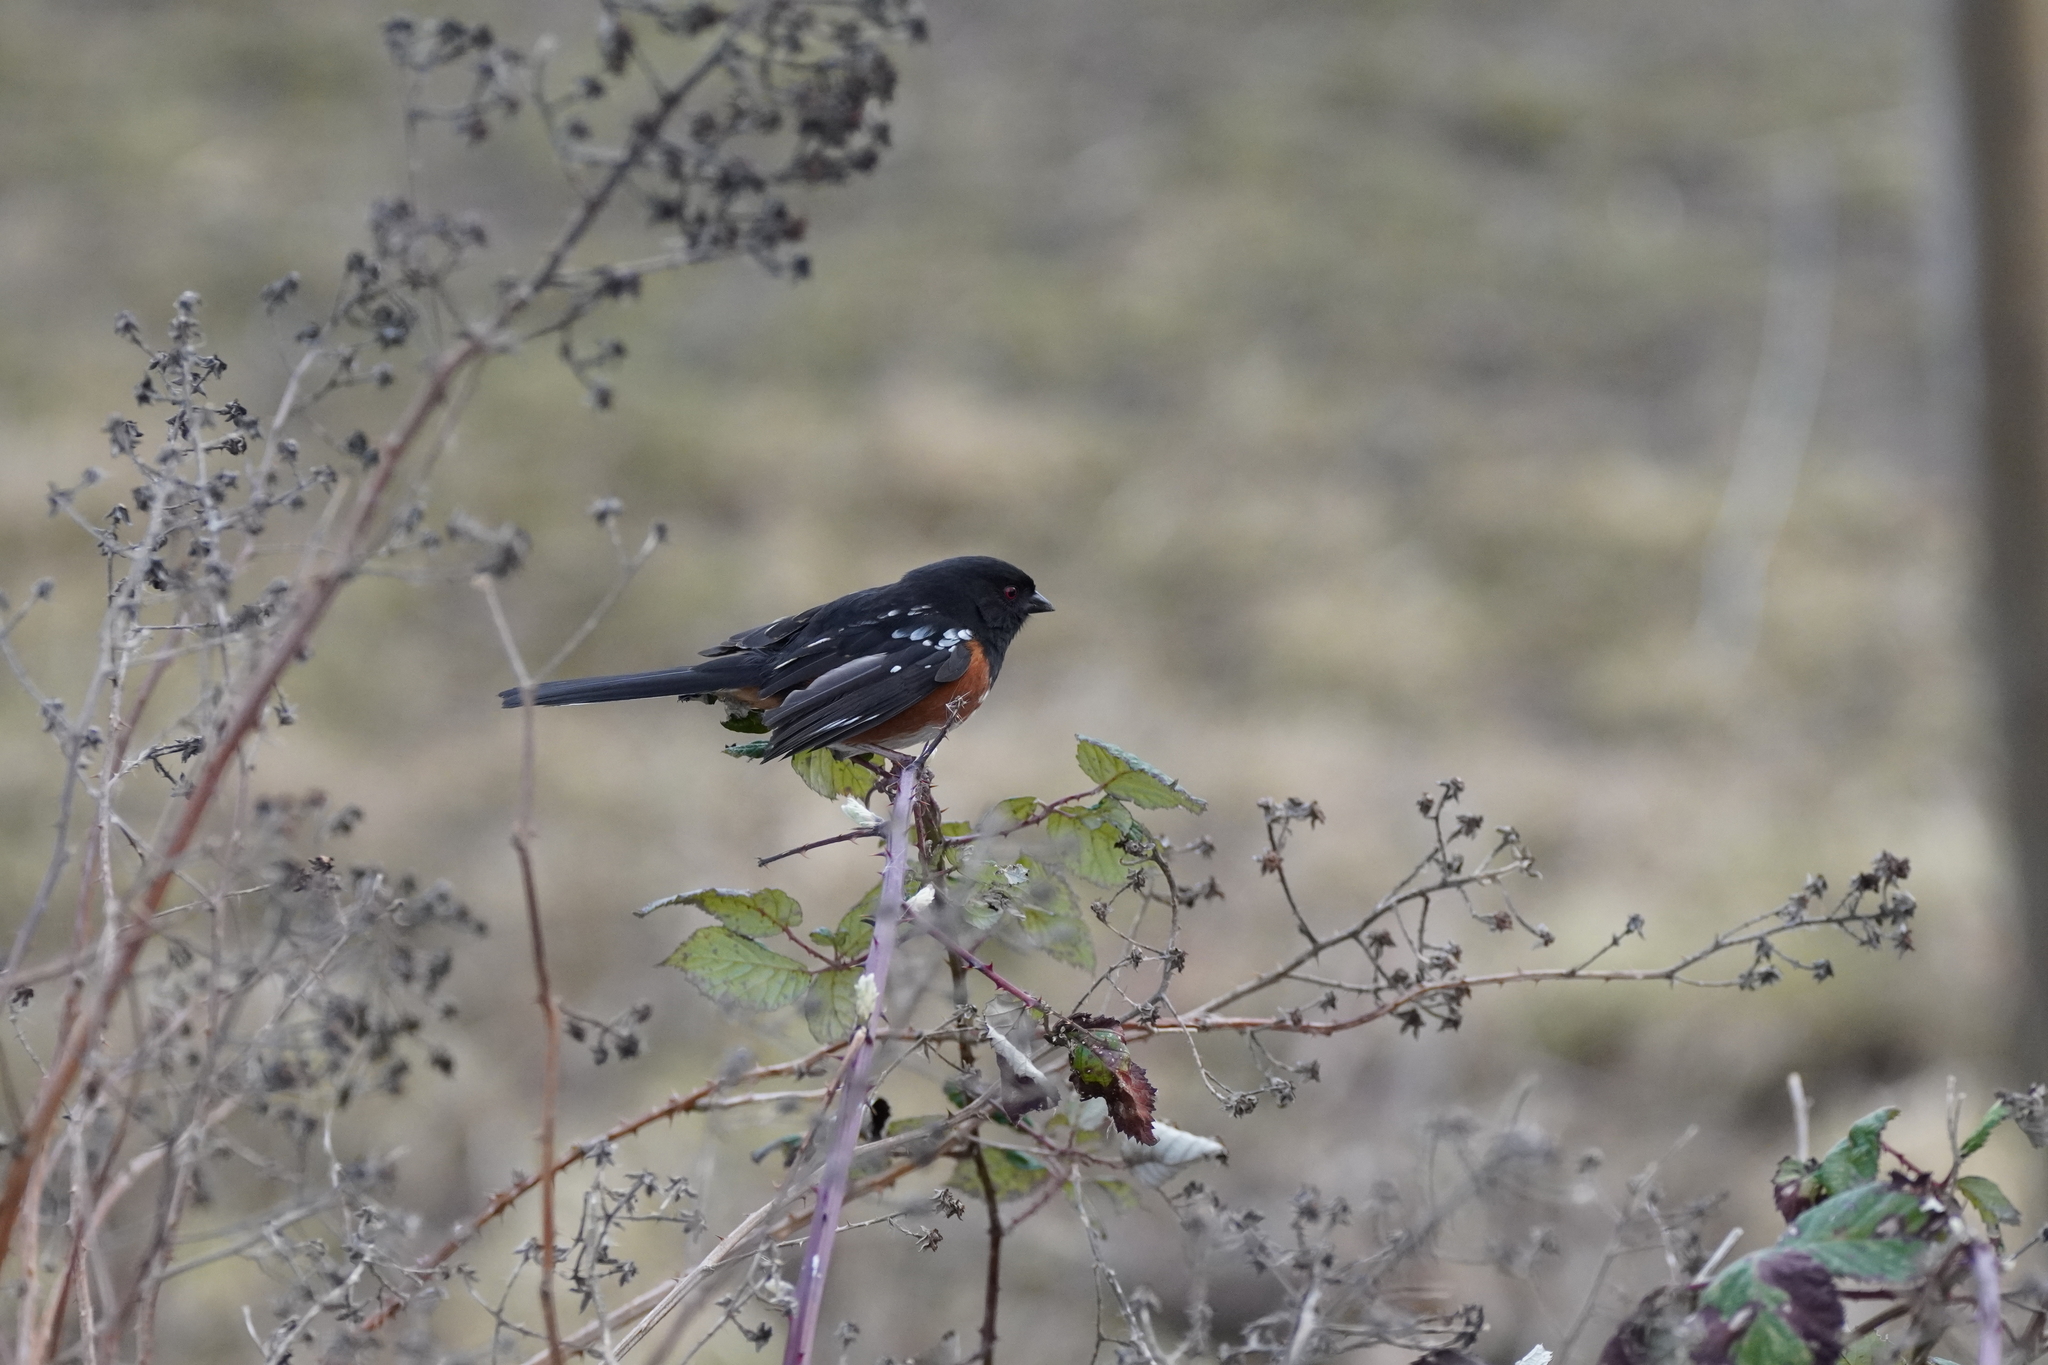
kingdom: Animalia
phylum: Chordata
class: Aves
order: Passeriformes
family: Passerellidae
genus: Pipilo
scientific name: Pipilo maculatus
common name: Spotted towhee
